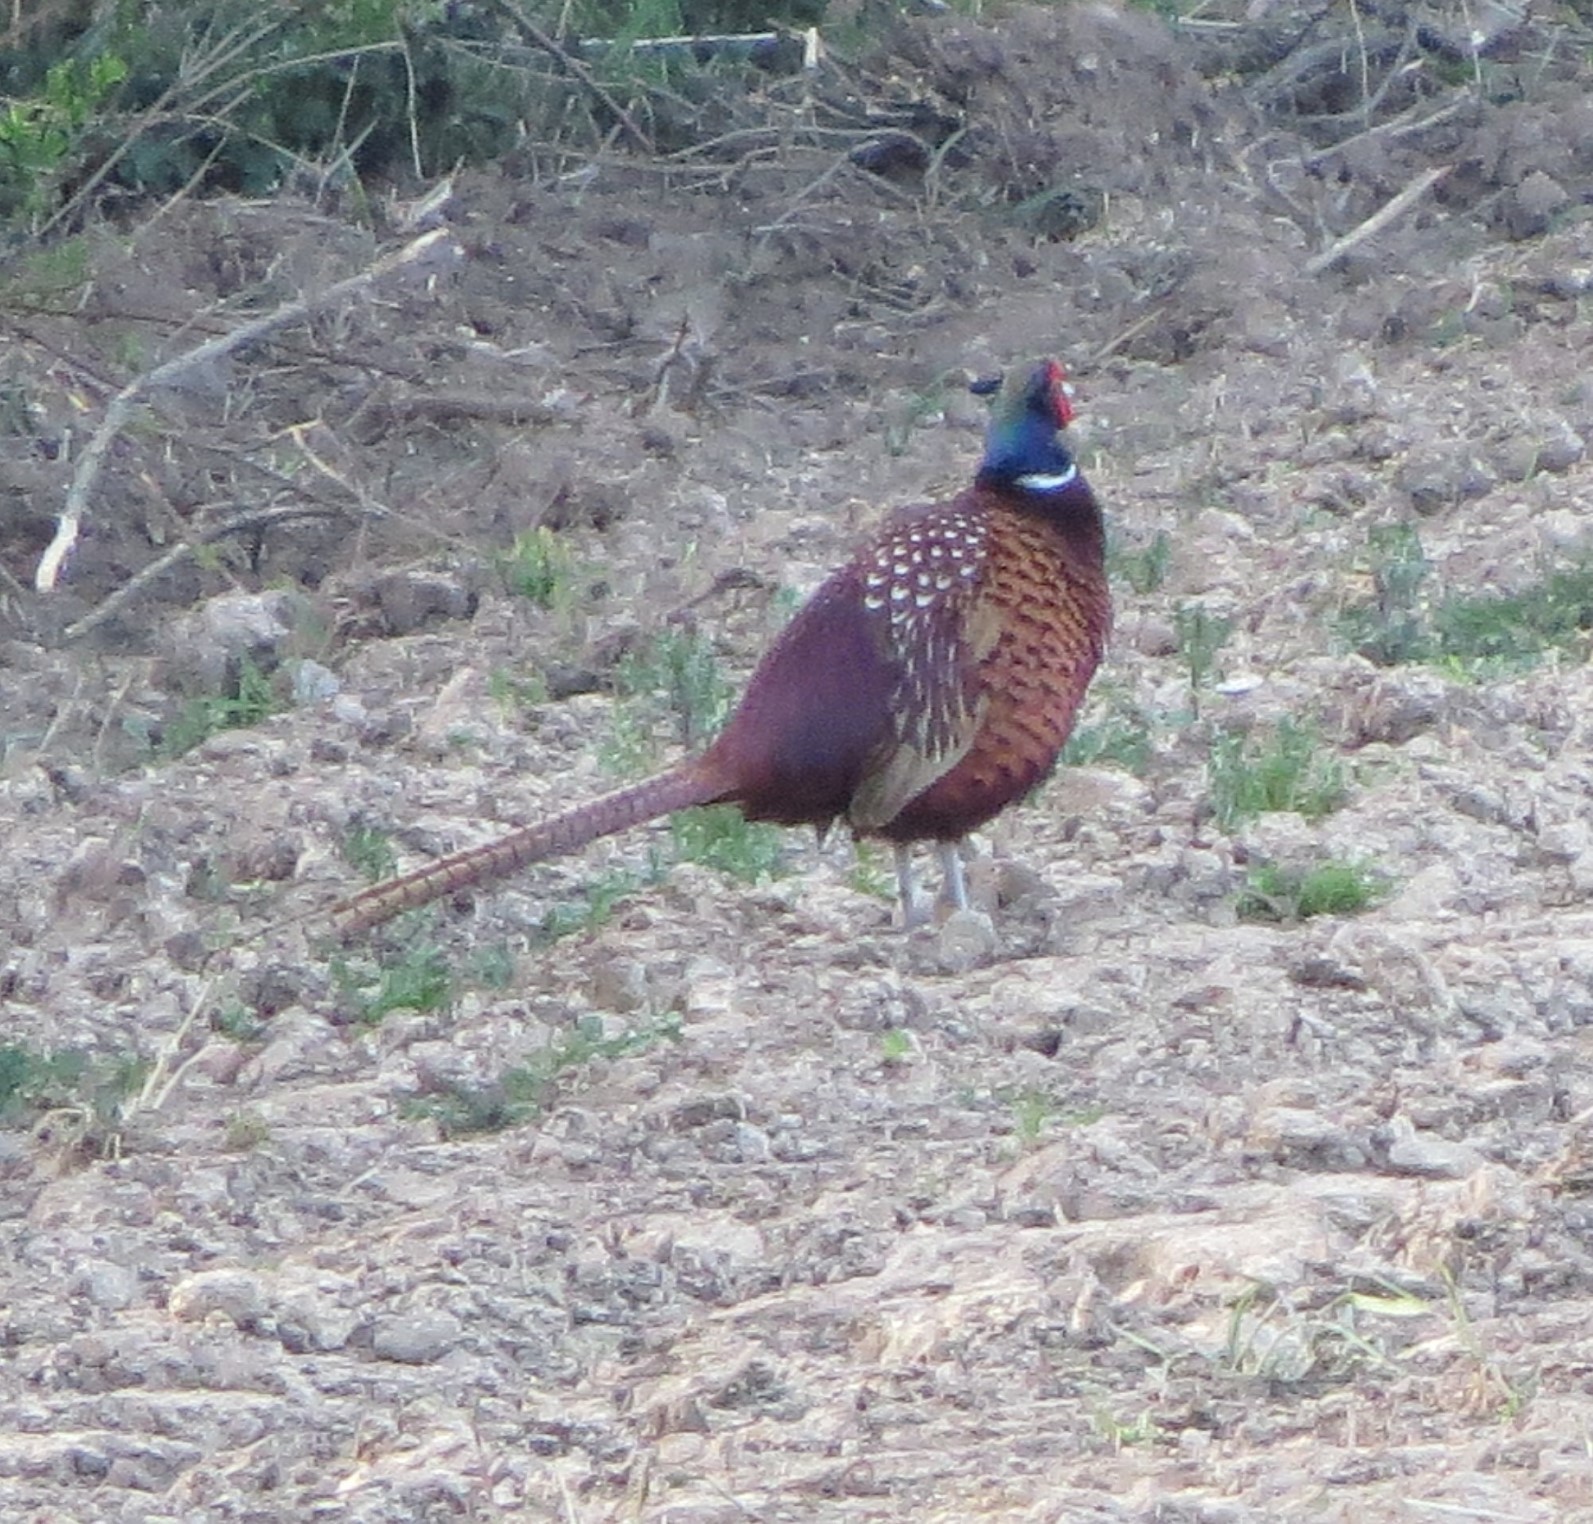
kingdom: Animalia
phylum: Chordata
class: Aves
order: Galliformes
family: Phasianidae
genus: Phasianus
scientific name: Phasianus colchicus
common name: Common pheasant
